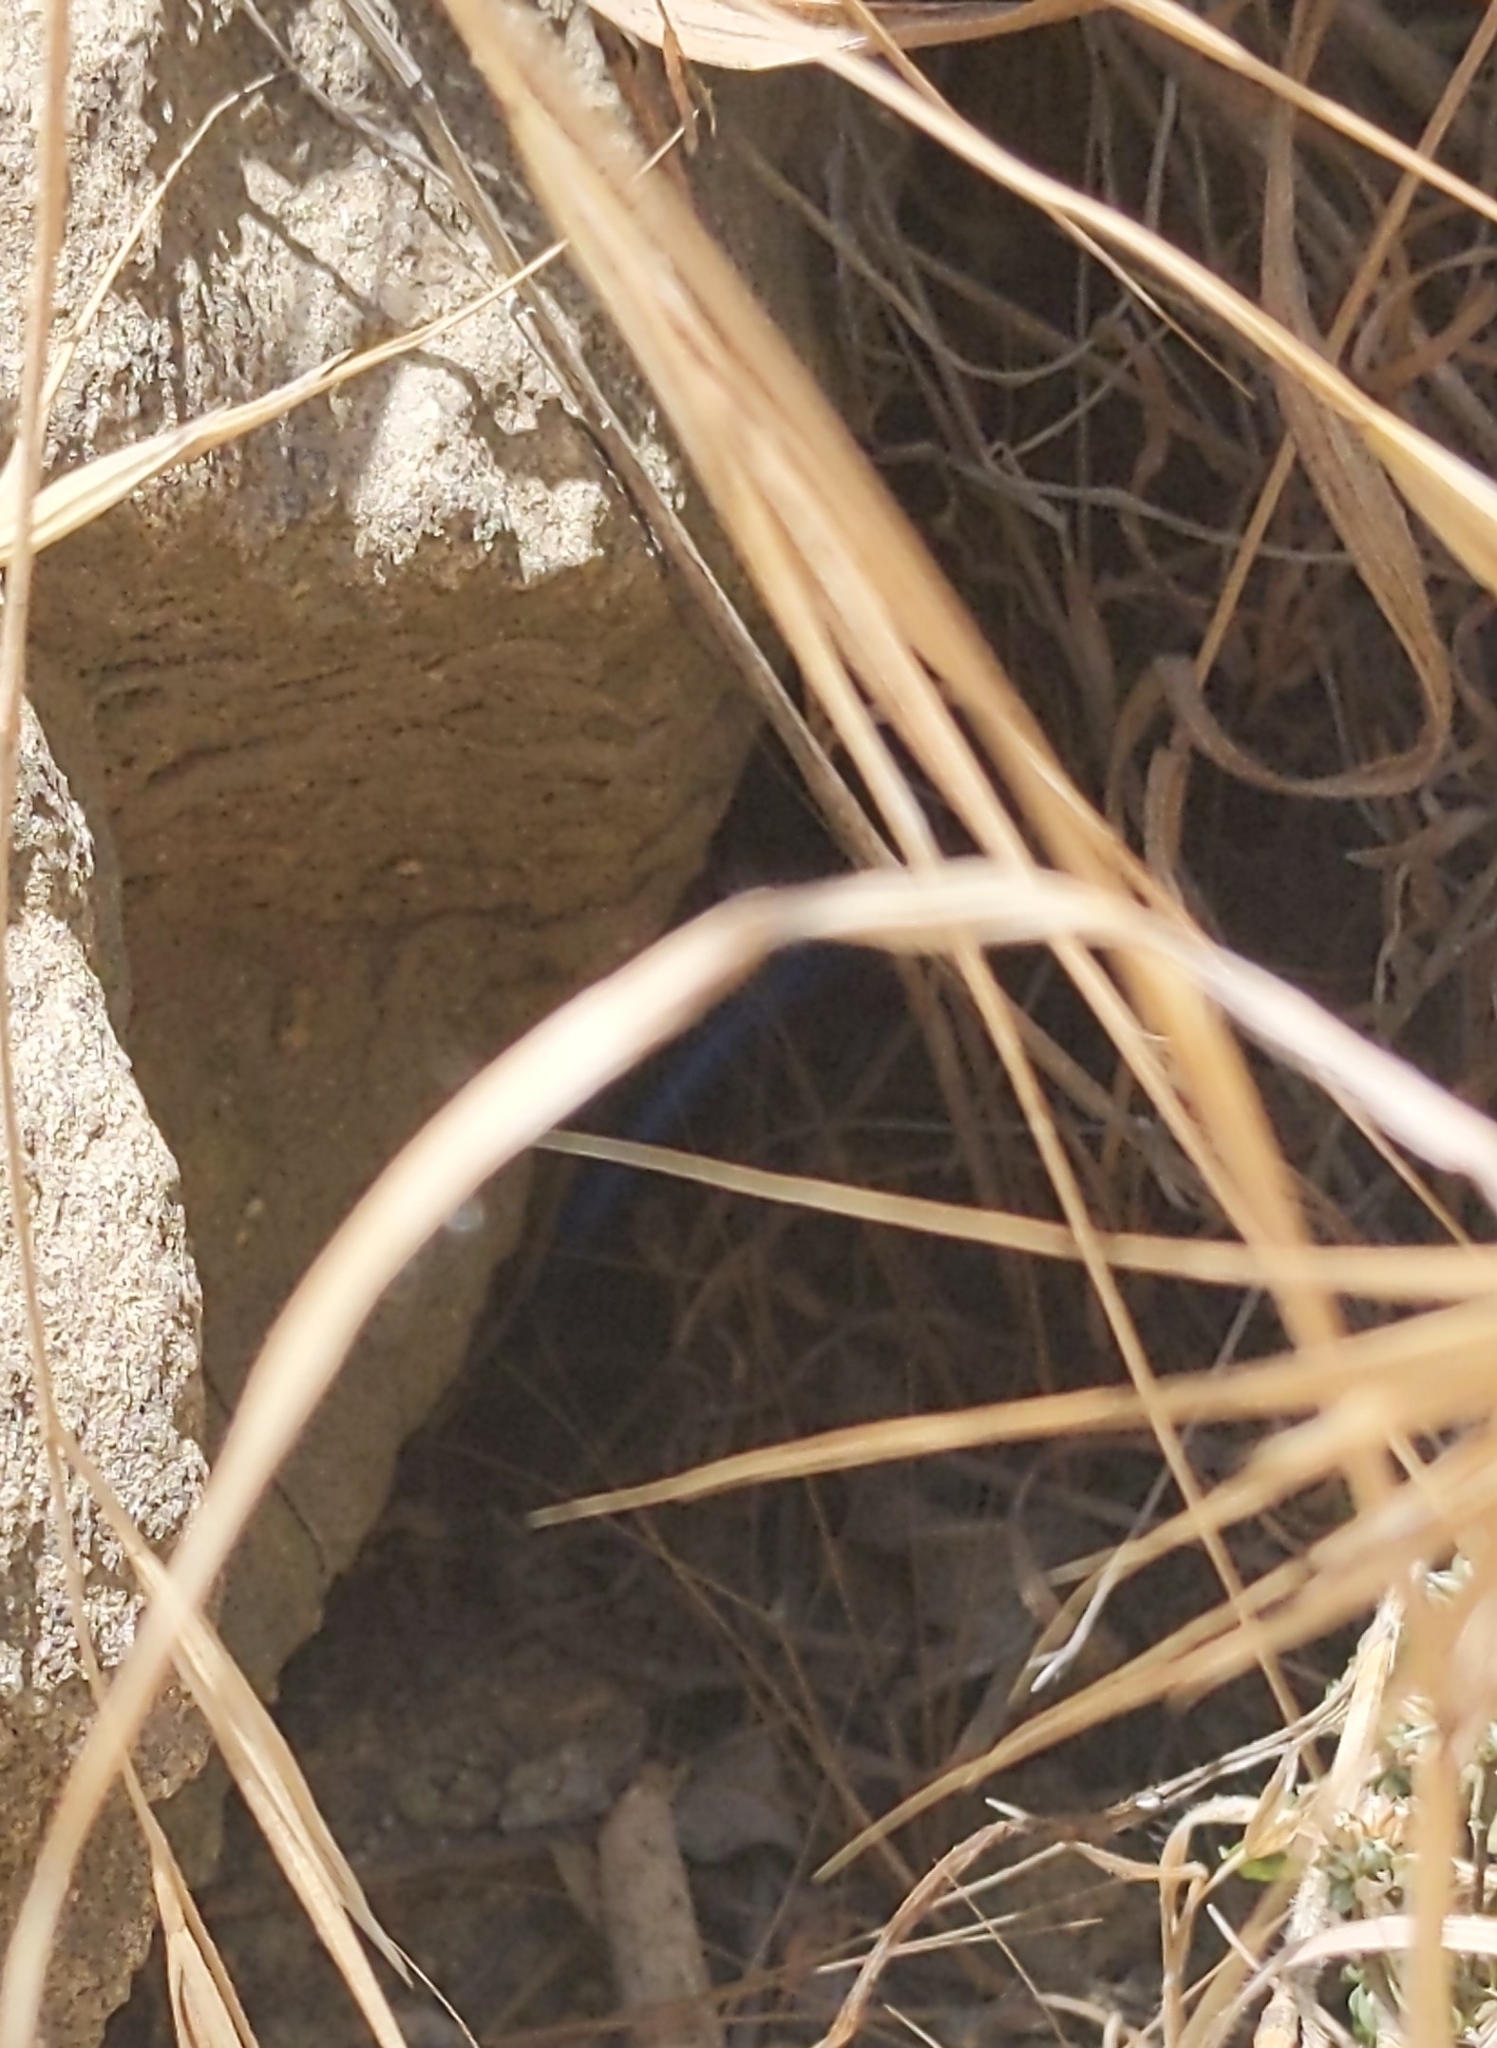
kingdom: Animalia
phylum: Chordata
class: Squamata
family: Scincidae
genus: Plestiodon
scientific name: Plestiodon skiltonianus
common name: Coronado island skink [interparietalis]
